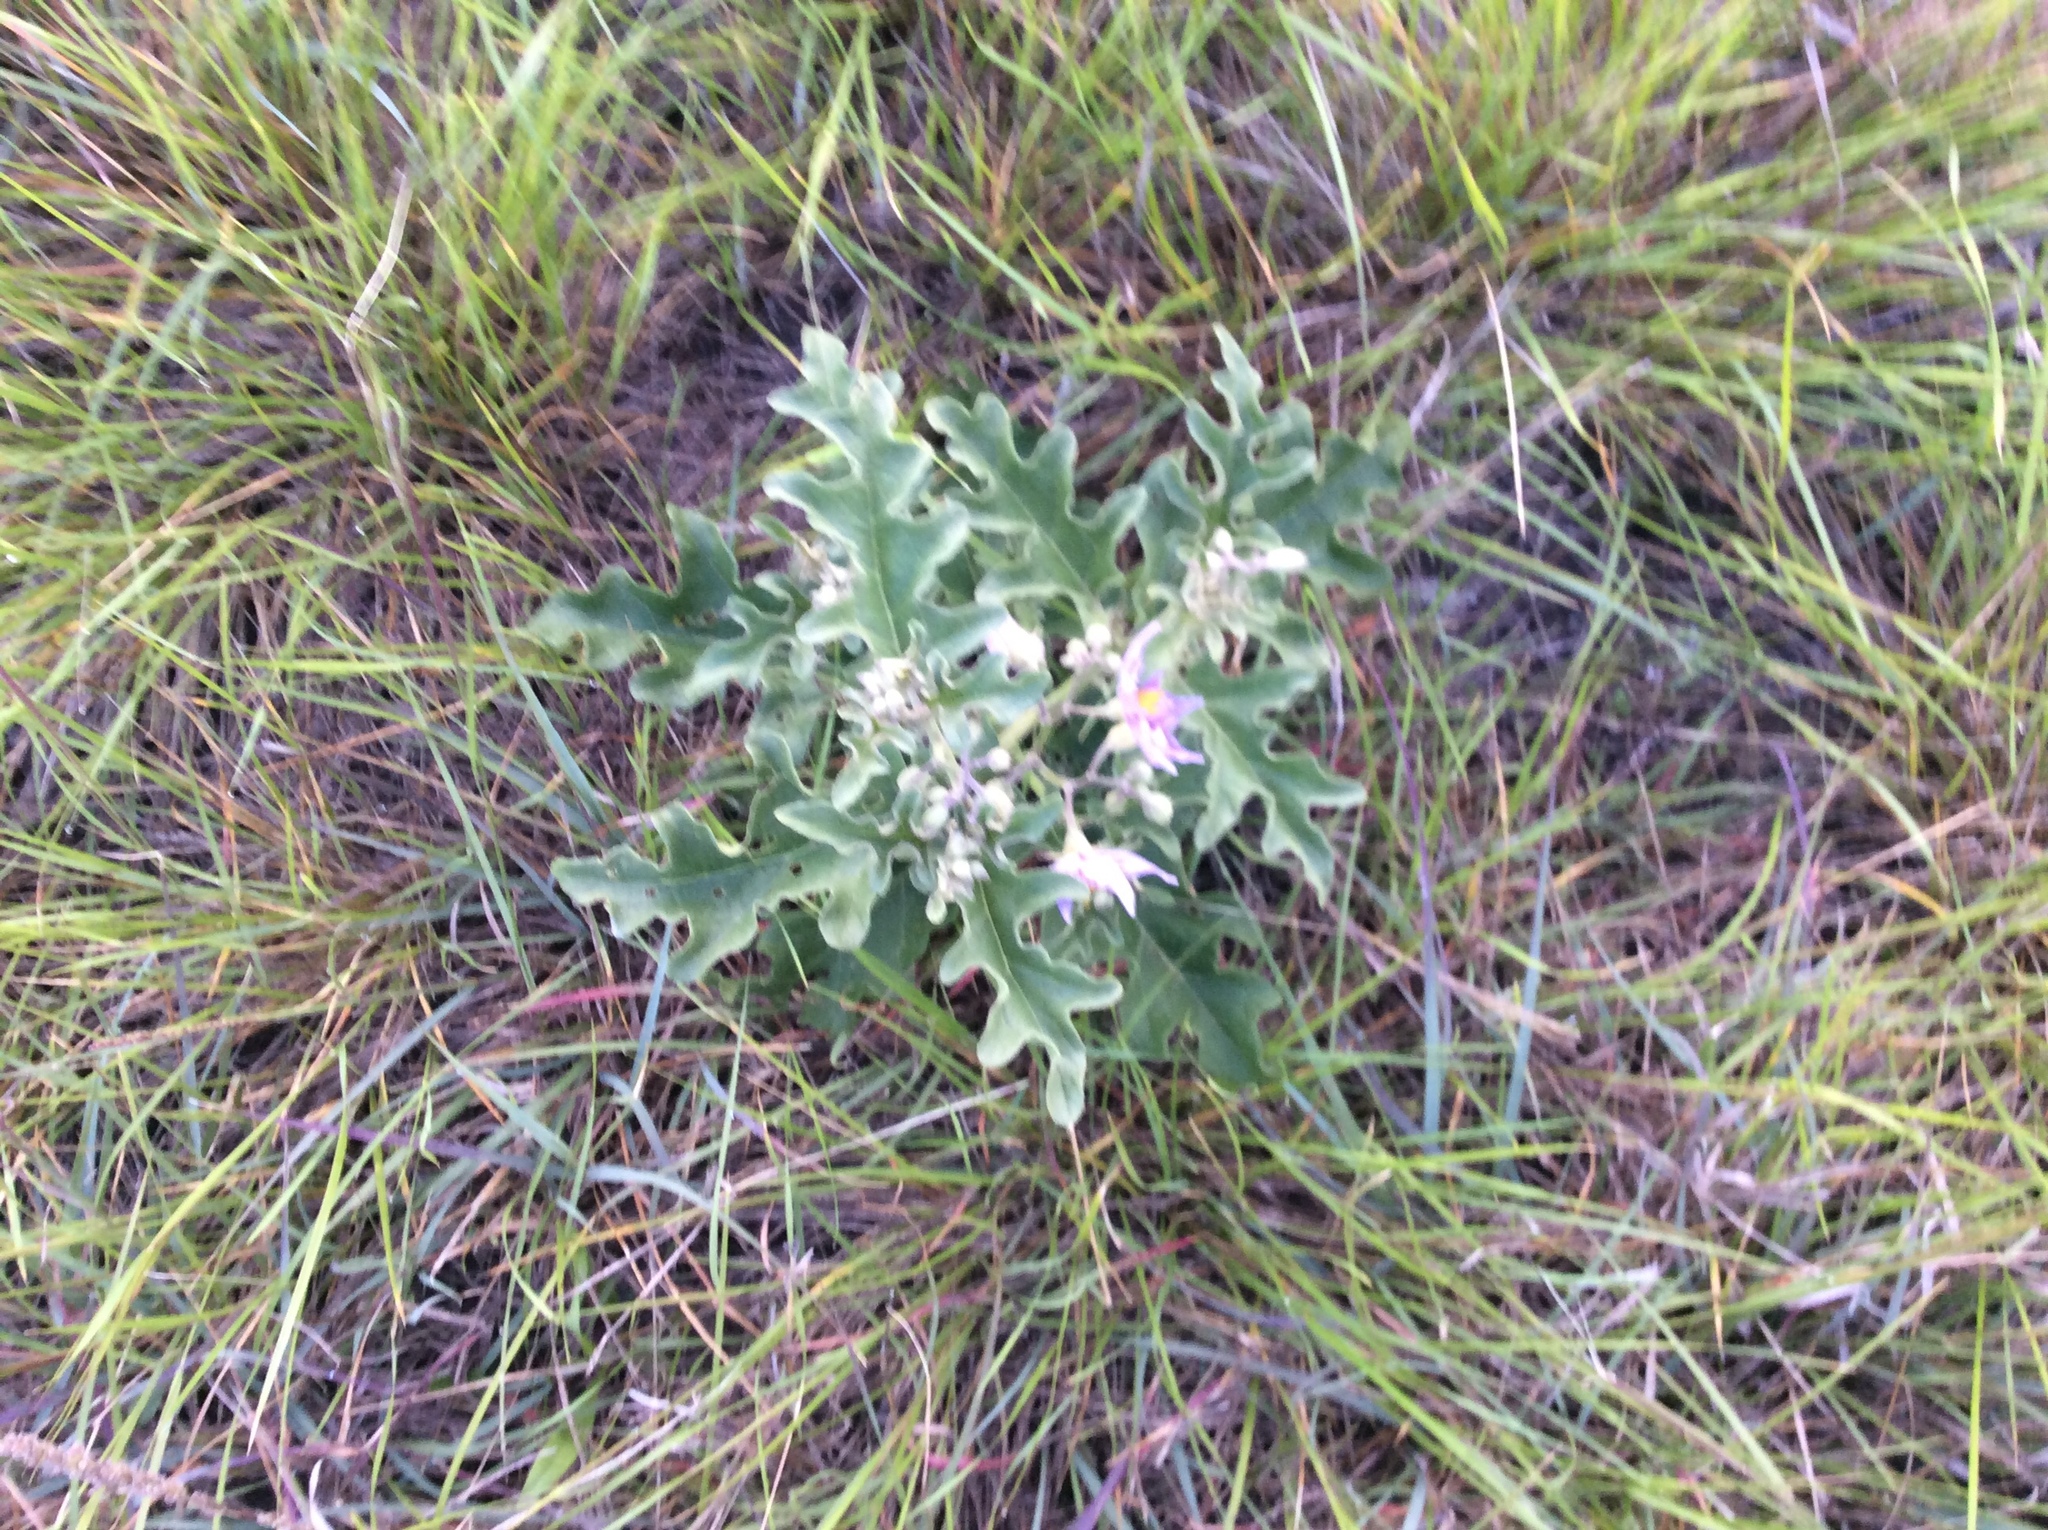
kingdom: Plantae
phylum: Tracheophyta
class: Magnoliopsida
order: Solanales
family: Solanaceae
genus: Solanum
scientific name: Solanum dimidiatum
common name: Carolina horse-nettle
